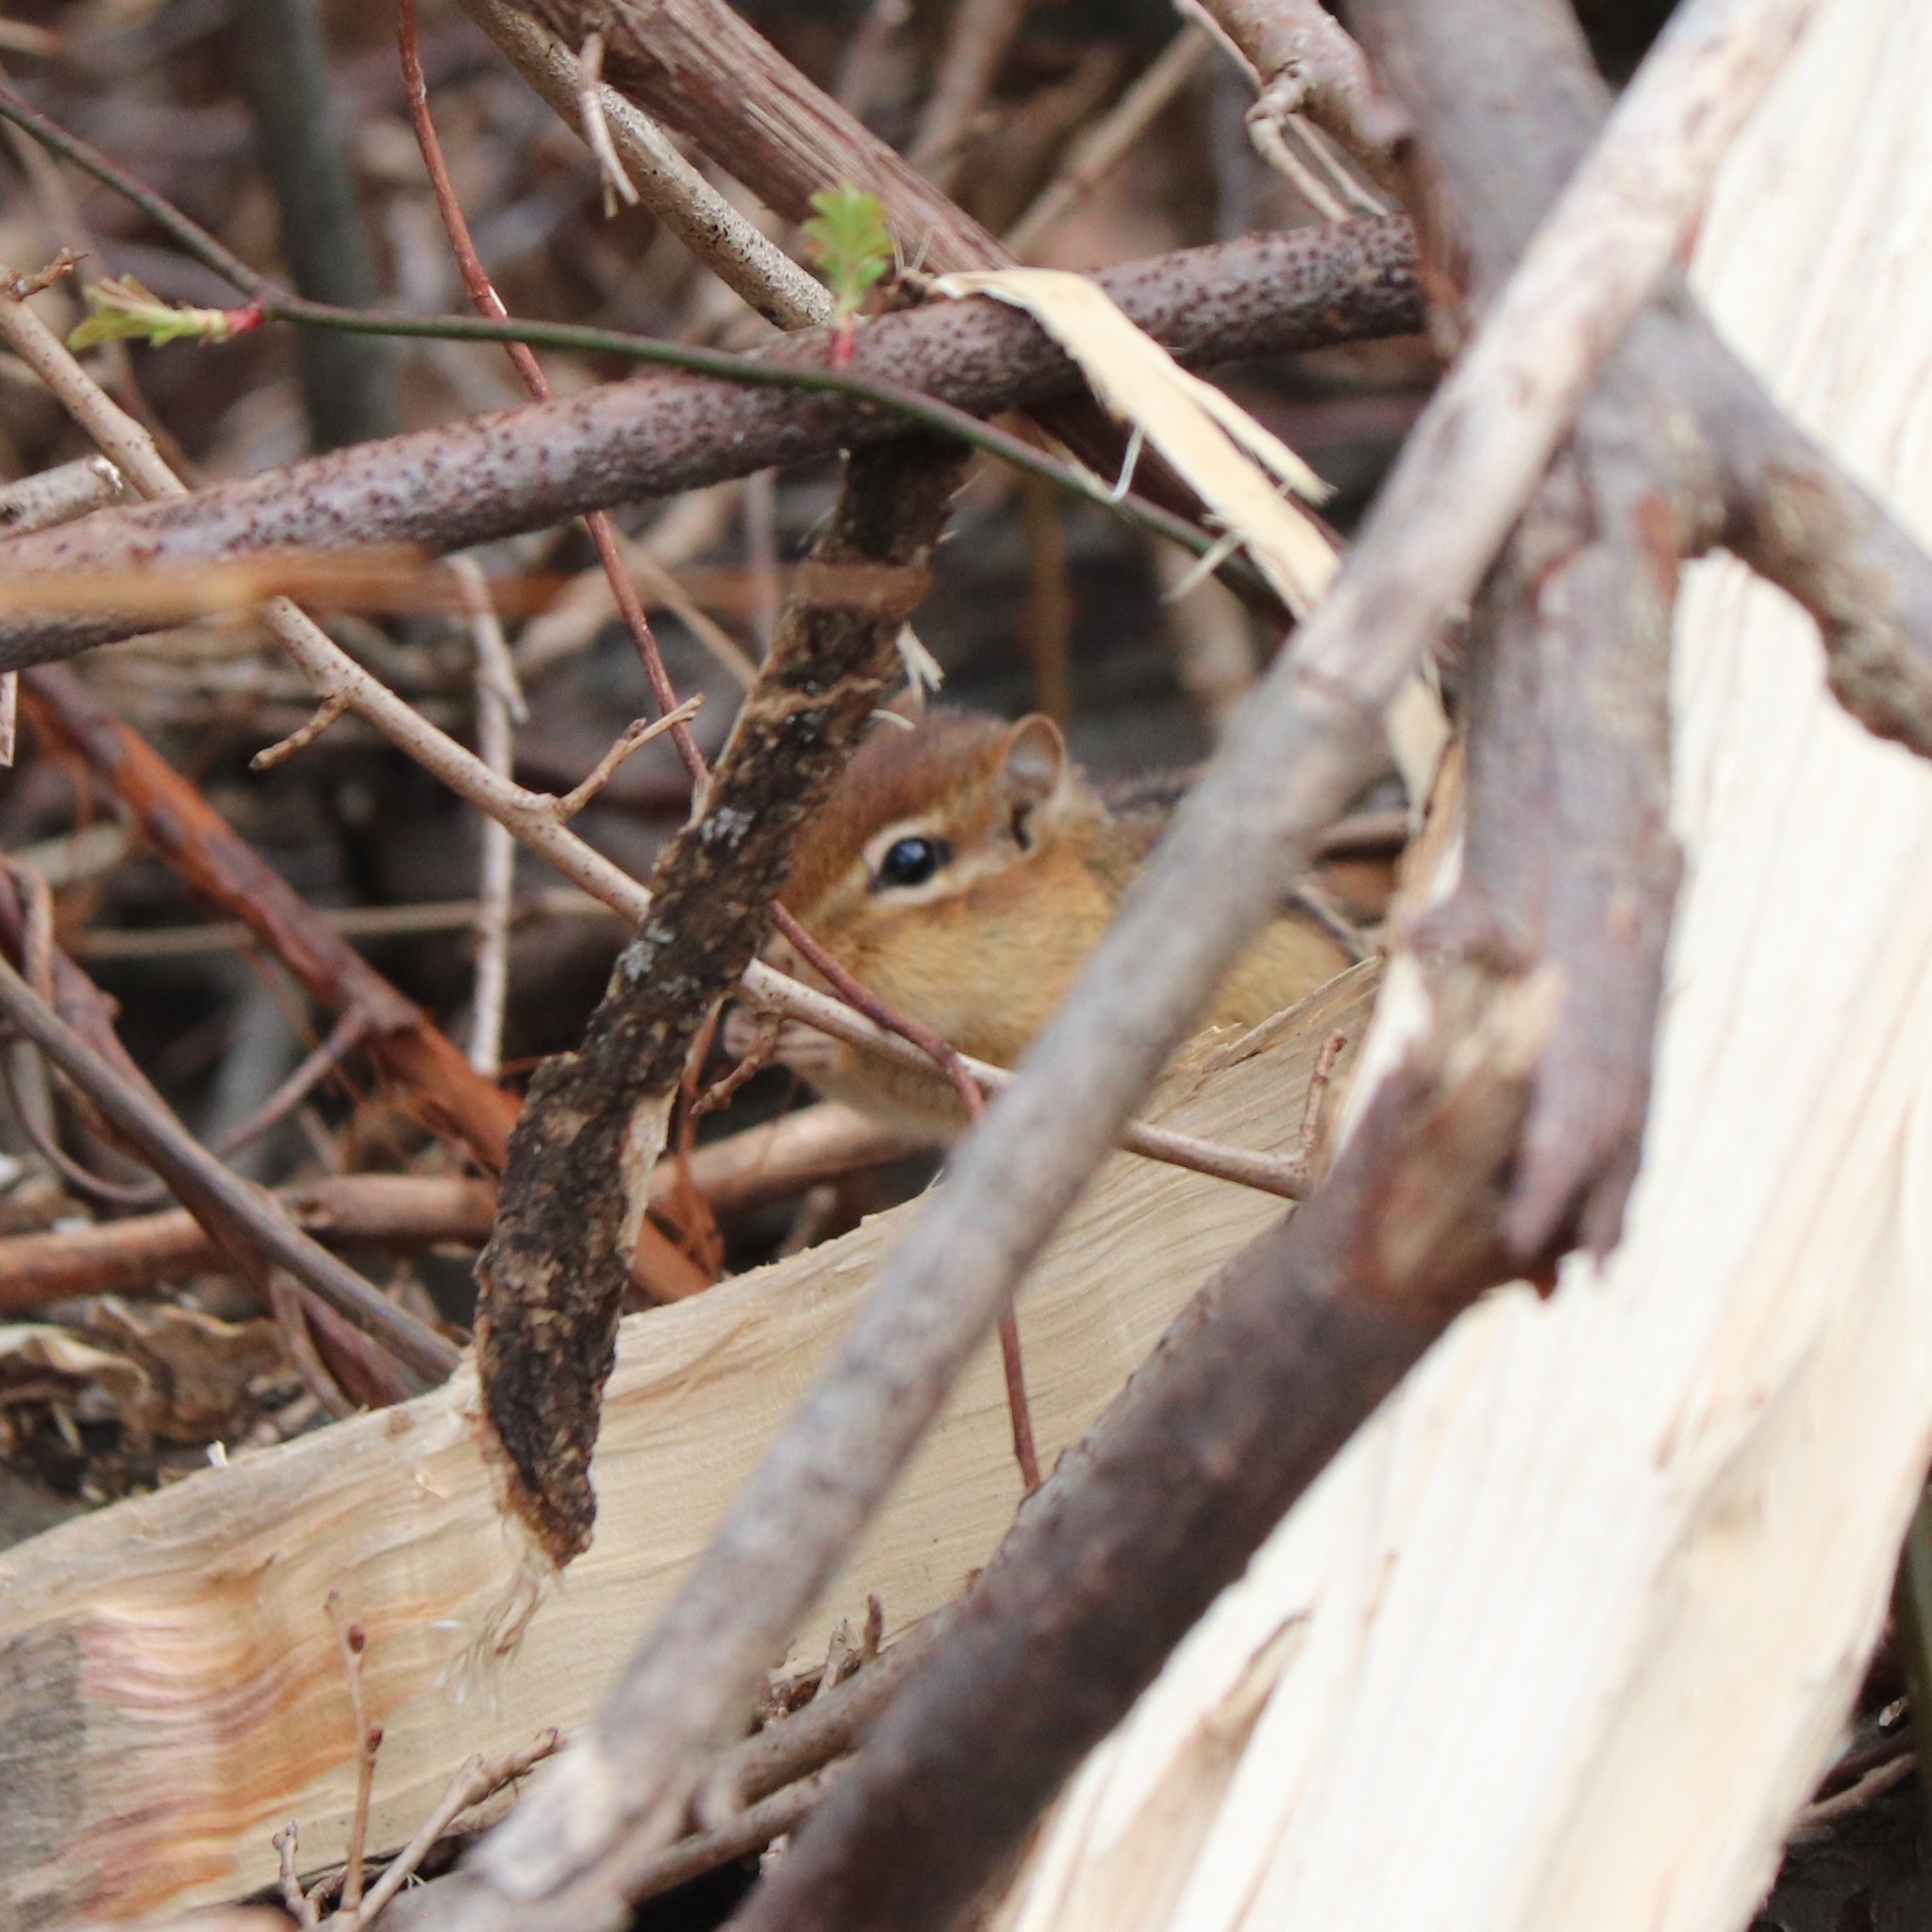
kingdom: Animalia
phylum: Chordata
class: Mammalia
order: Rodentia
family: Sciuridae
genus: Tamias
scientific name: Tamias striatus
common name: Eastern chipmunk
